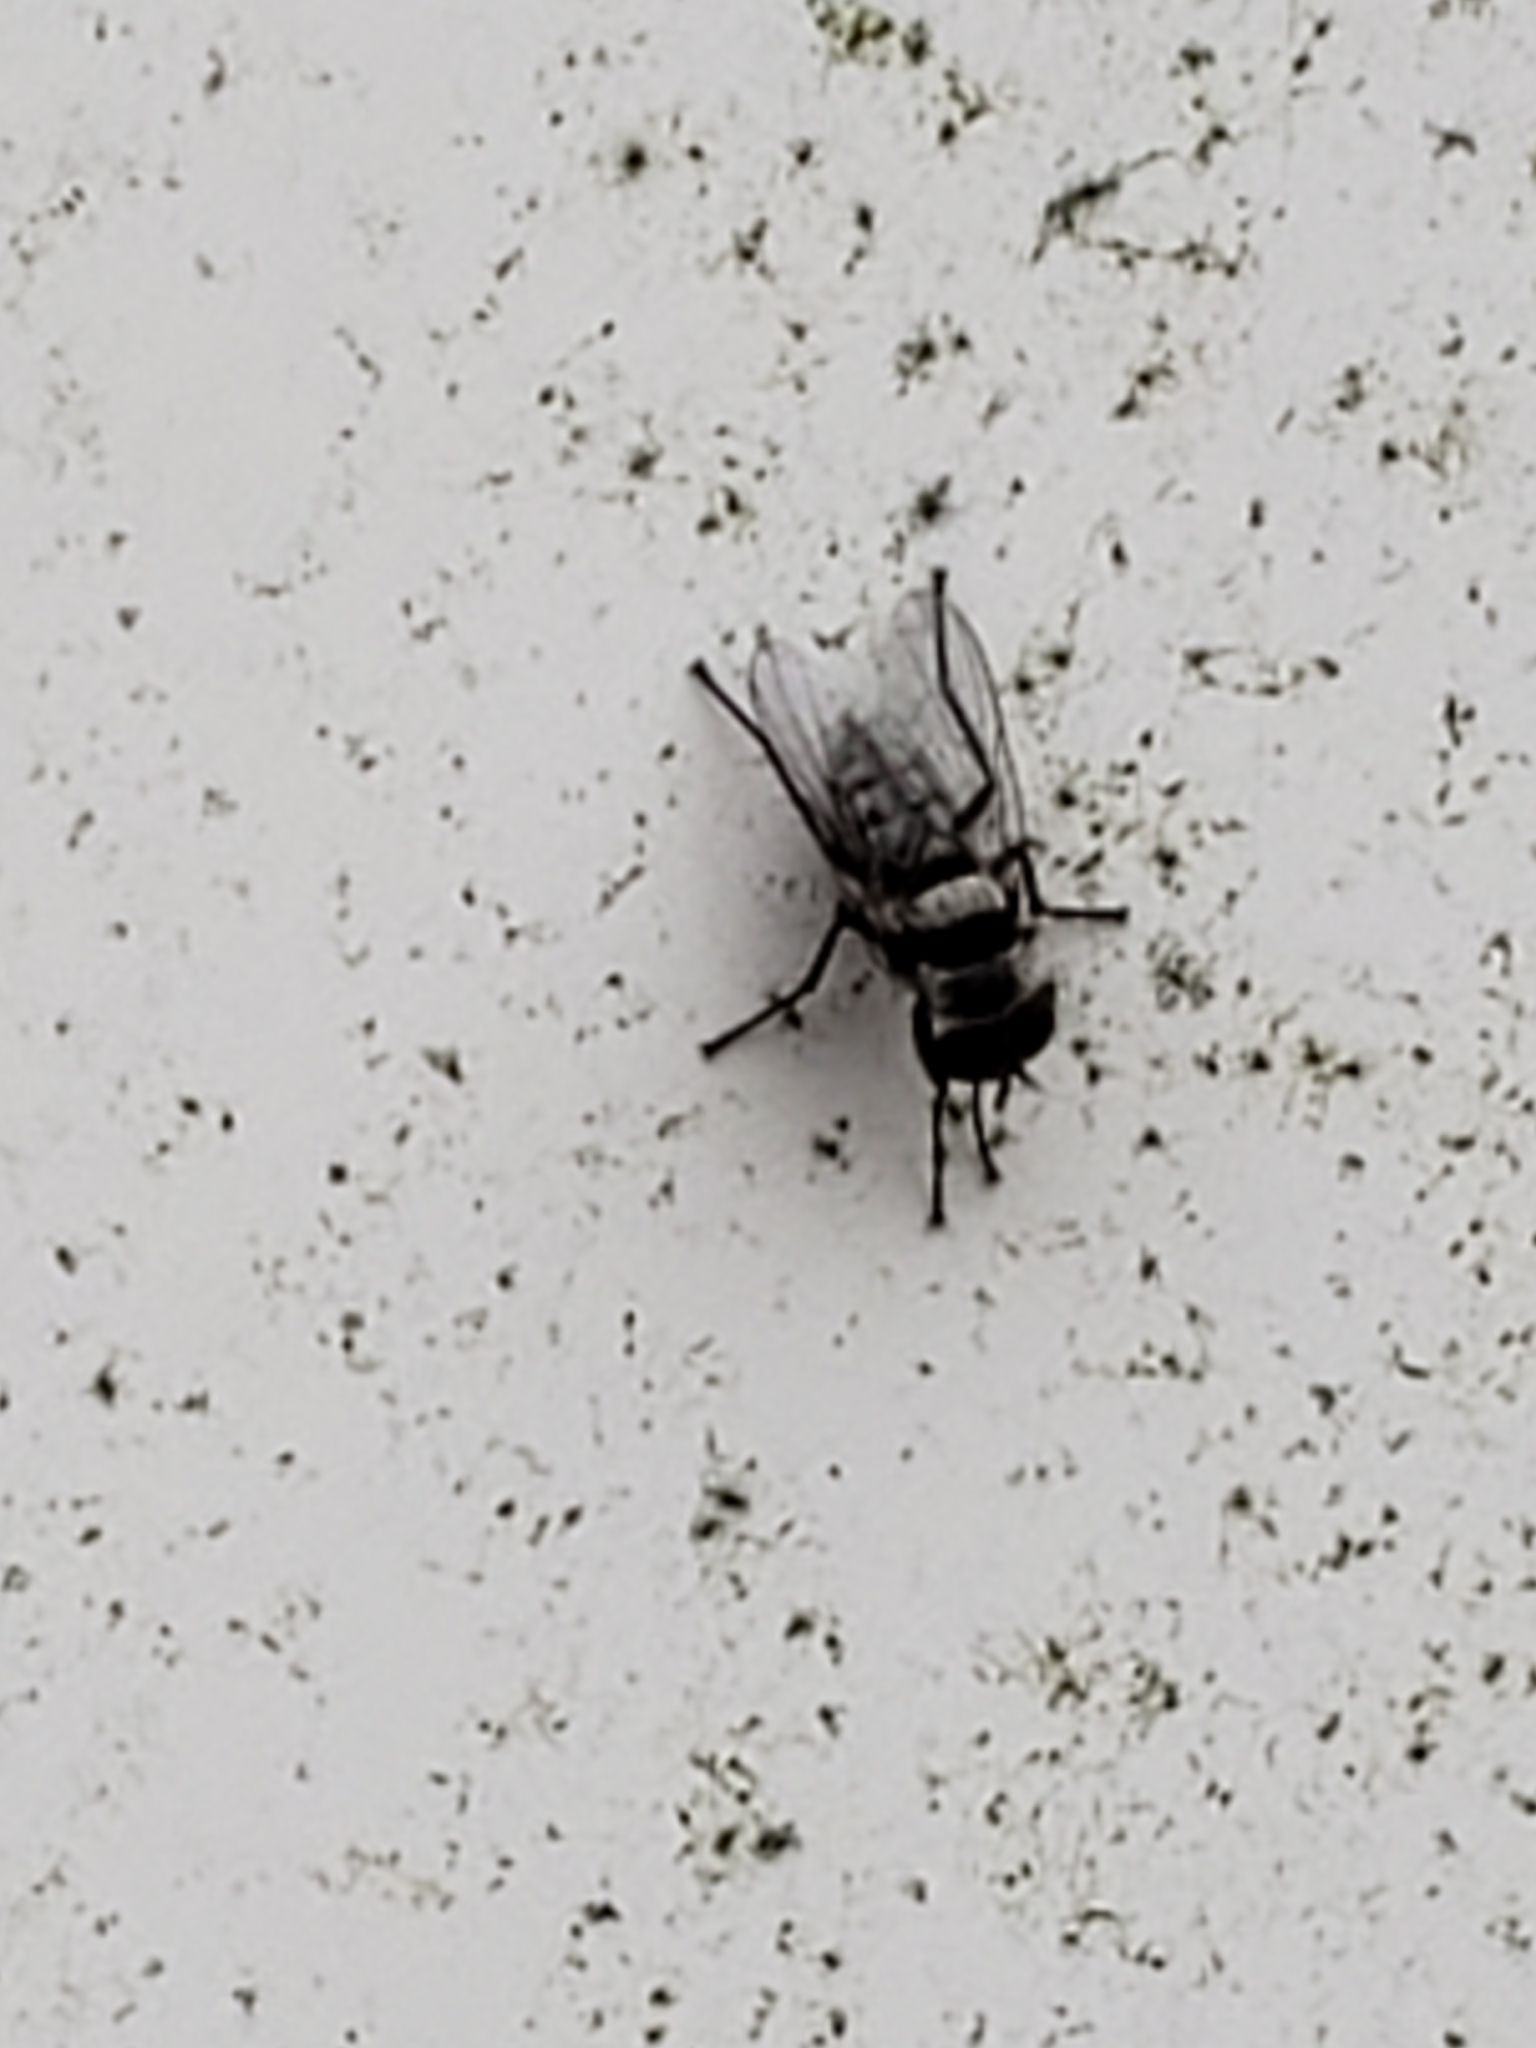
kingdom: Animalia
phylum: Arthropoda
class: Insecta
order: Diptera
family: Anthomyiidae
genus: Anthomyia
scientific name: Anthomyia pluvialis
